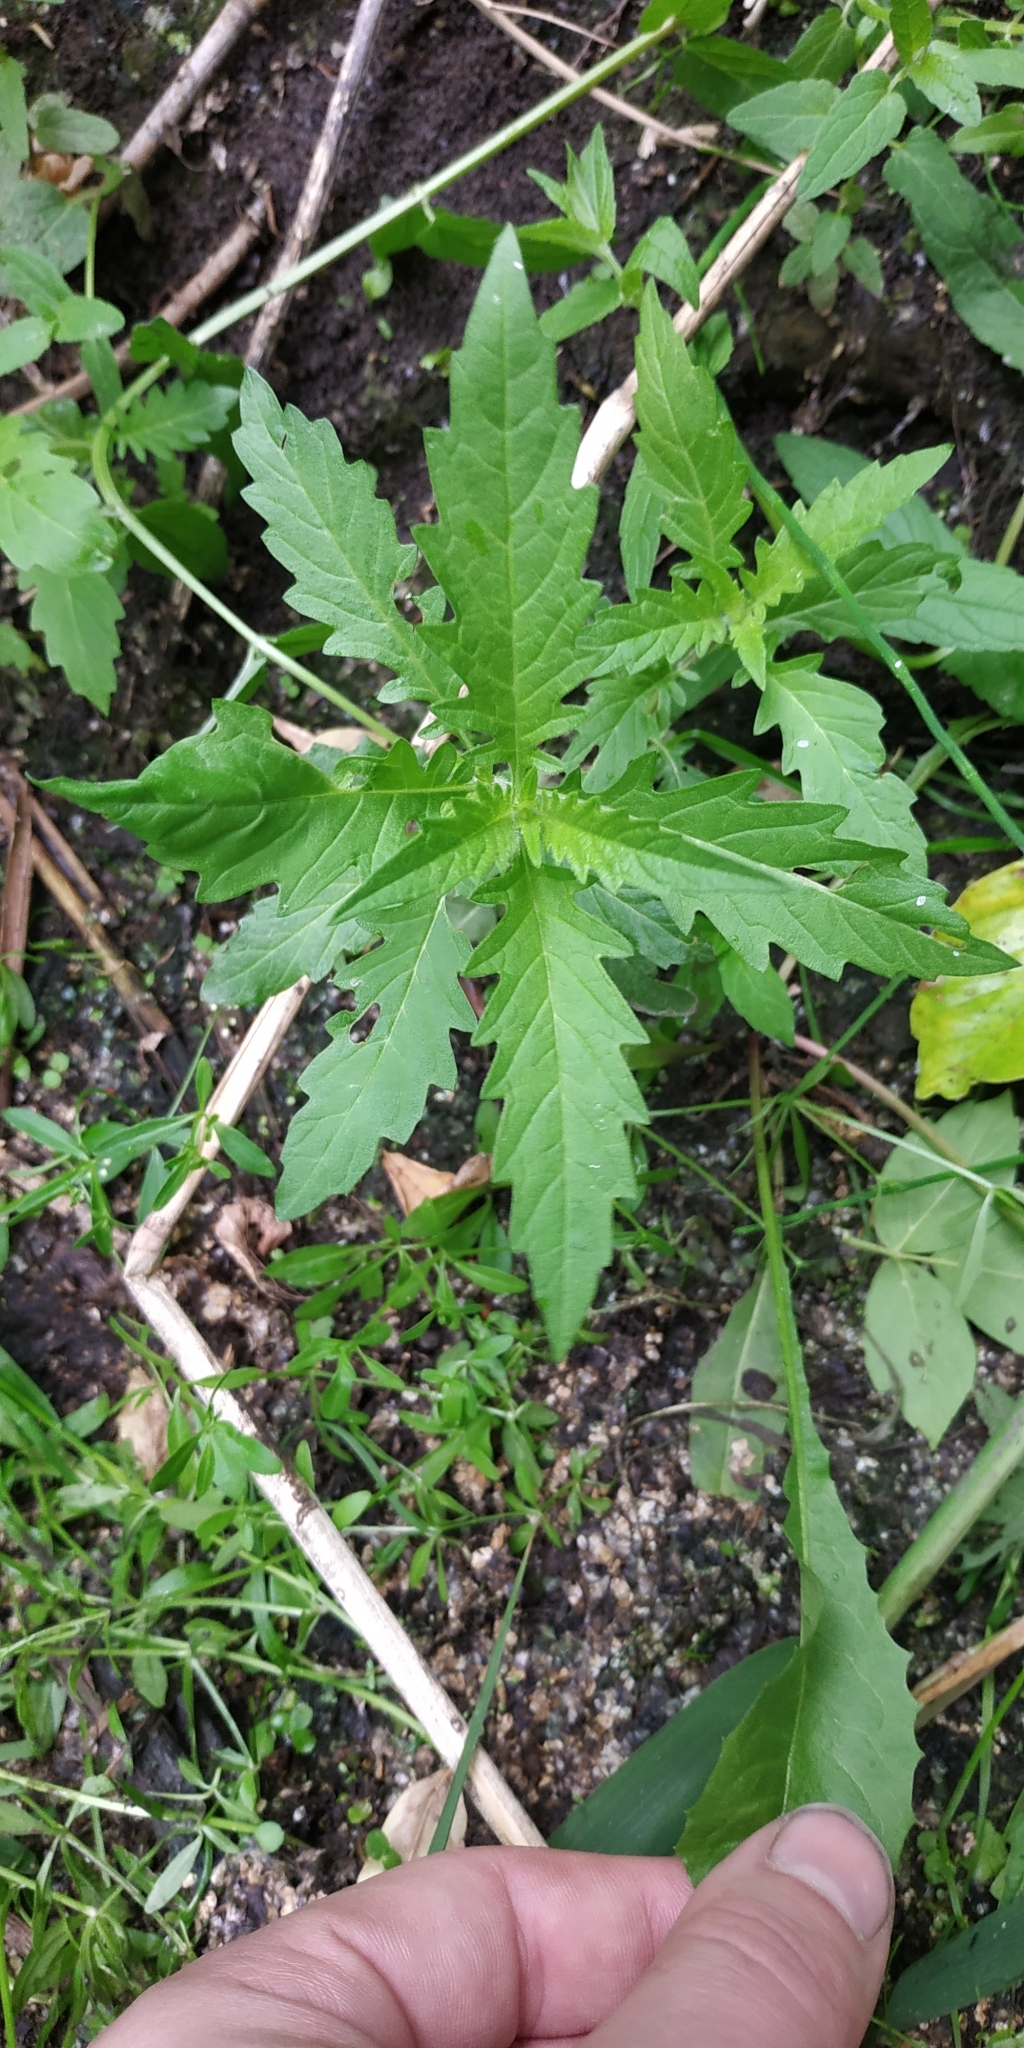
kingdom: Plantae
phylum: Tracheophyta
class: Magnoliopsida
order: Lamiales
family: Lamiaceae
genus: Lycopus
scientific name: Lycopus europaeus
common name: European bugleweed
